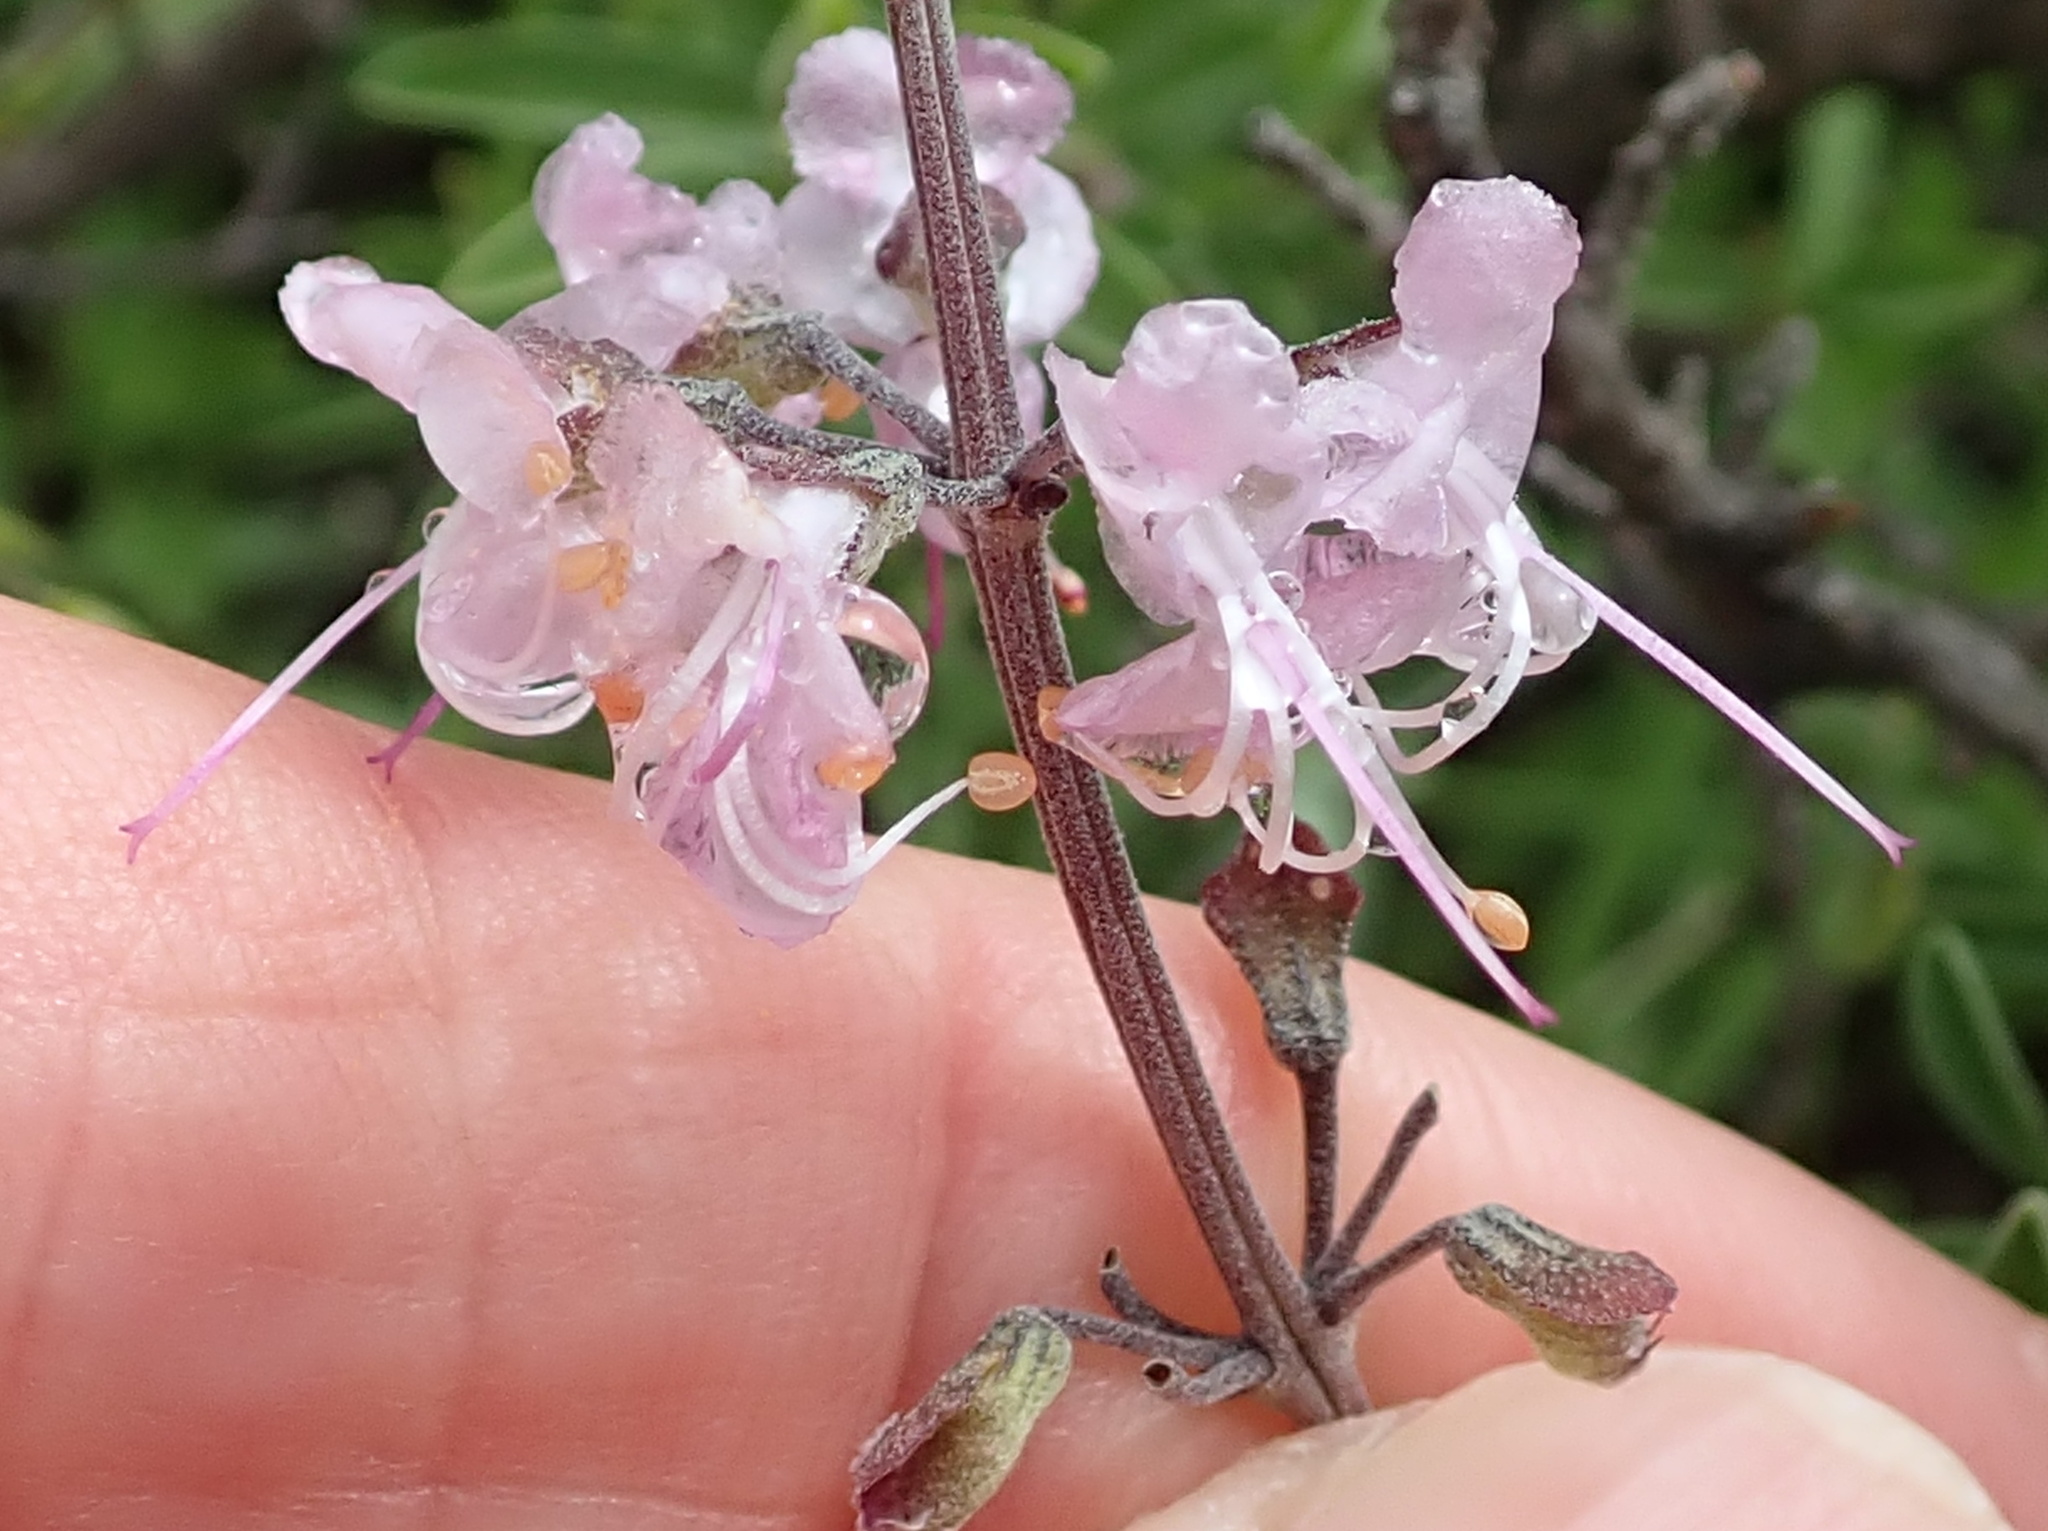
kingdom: Plantae
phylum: Tracheophyta
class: Magnoliopsida
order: Lamiales
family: Lamiaceae
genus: Ocimum
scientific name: Ocimum burchellianum
